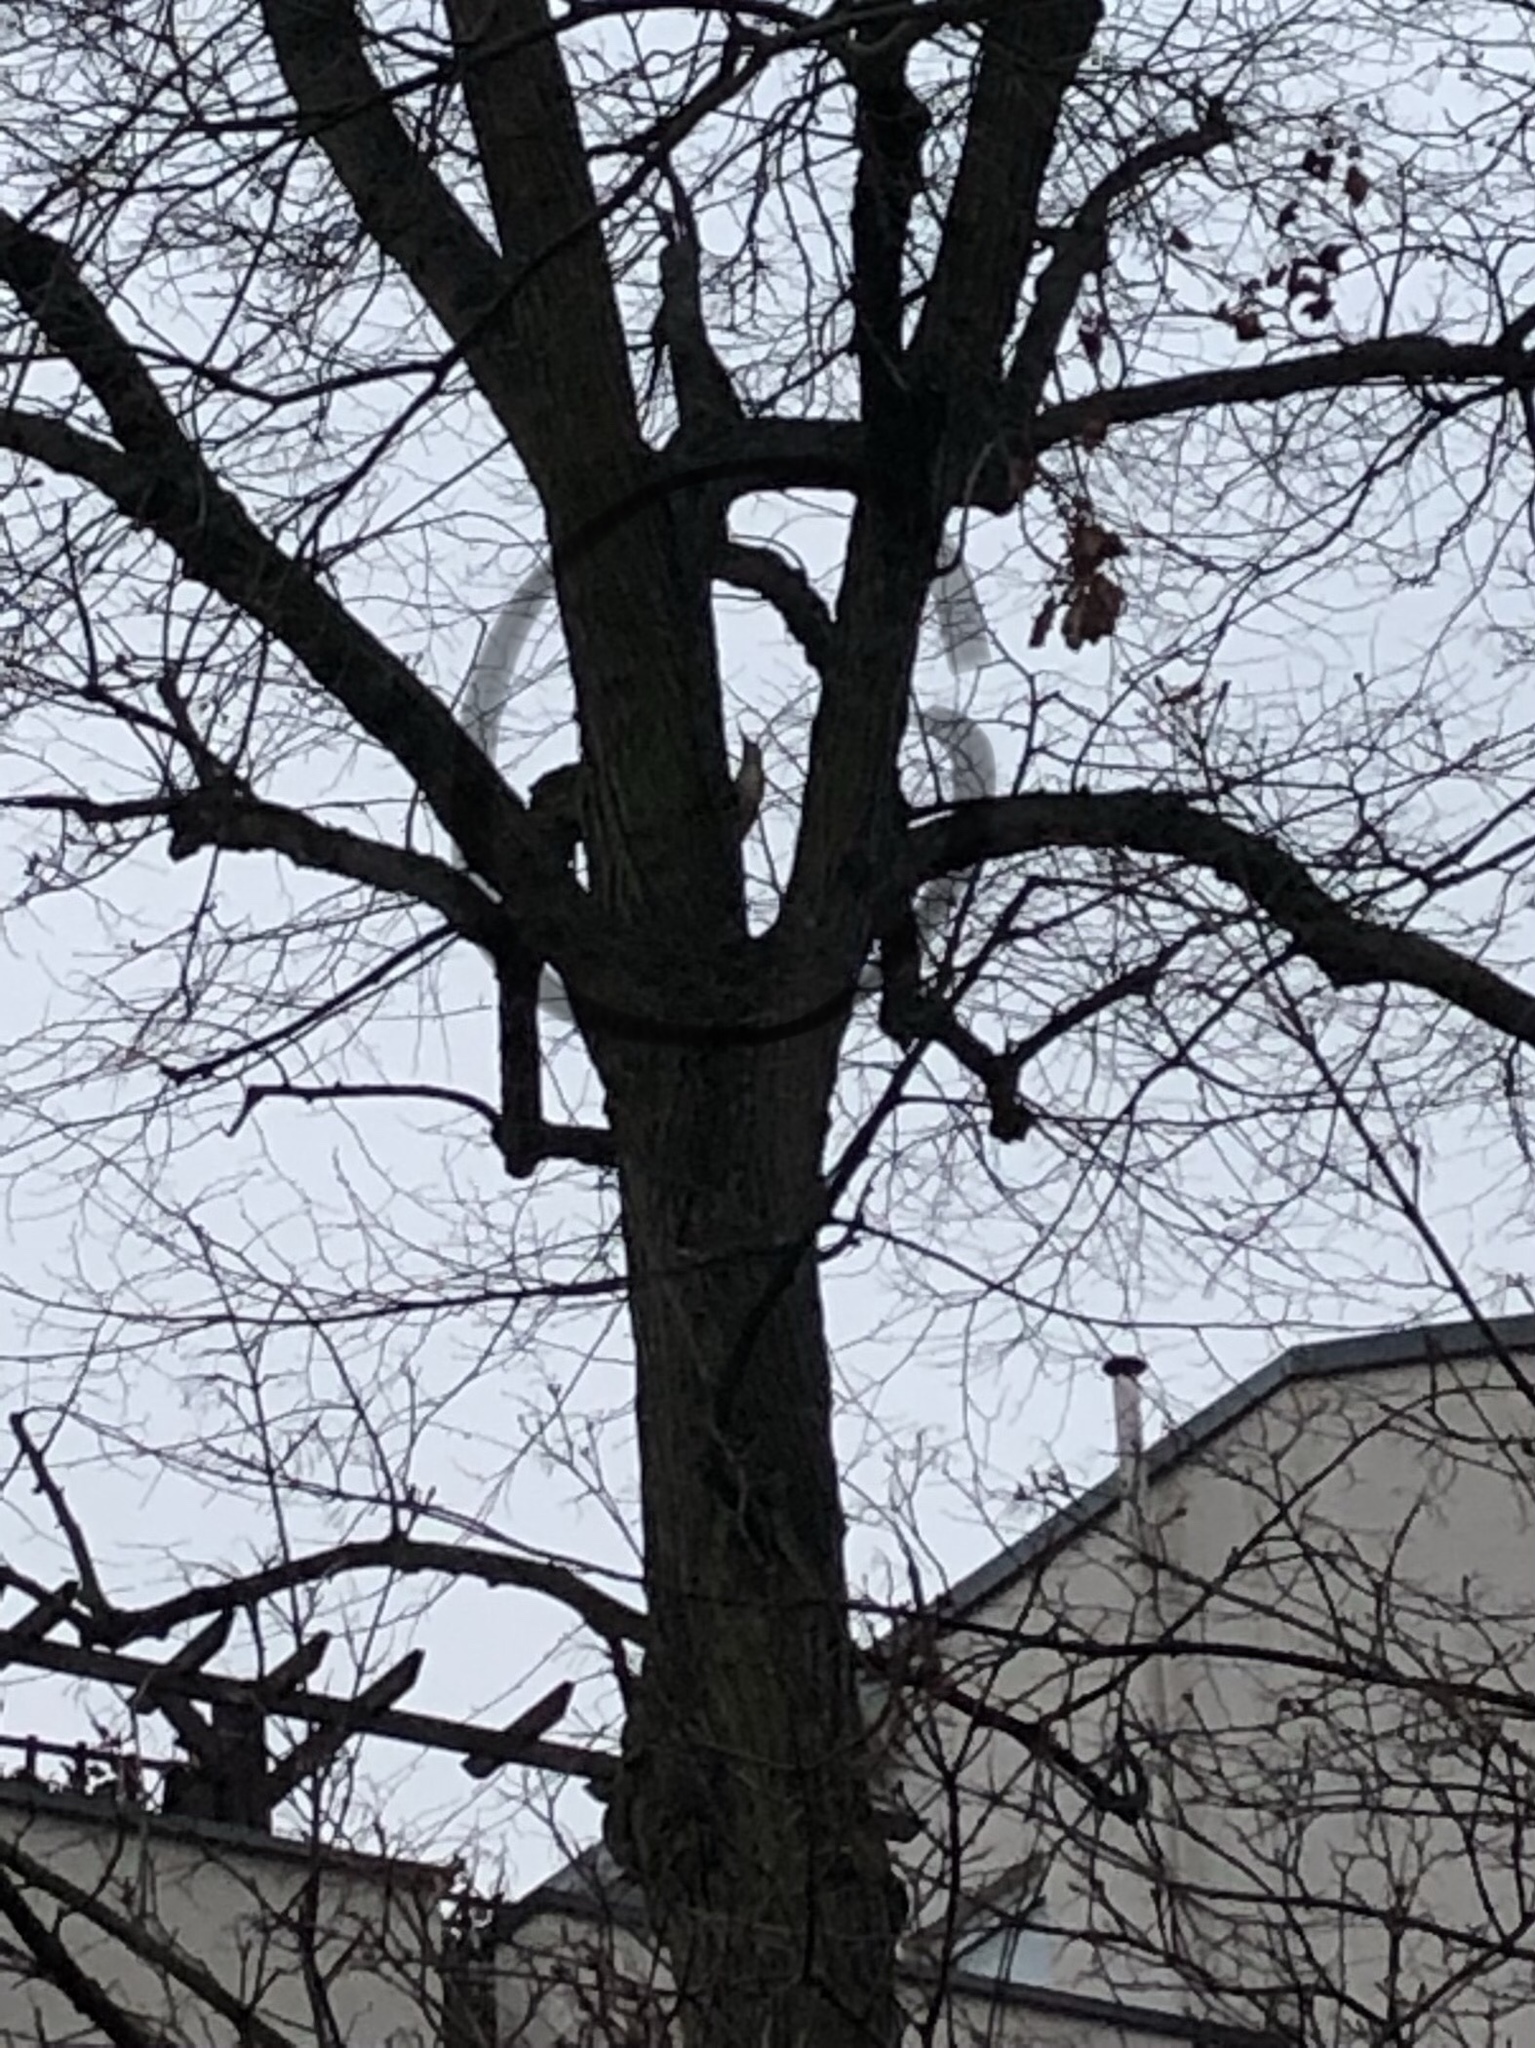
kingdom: Animalia
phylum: Chordata
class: Aves
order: Piciformes
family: Picidae
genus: Picus
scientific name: Picus viridis
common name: European green woodpecker
